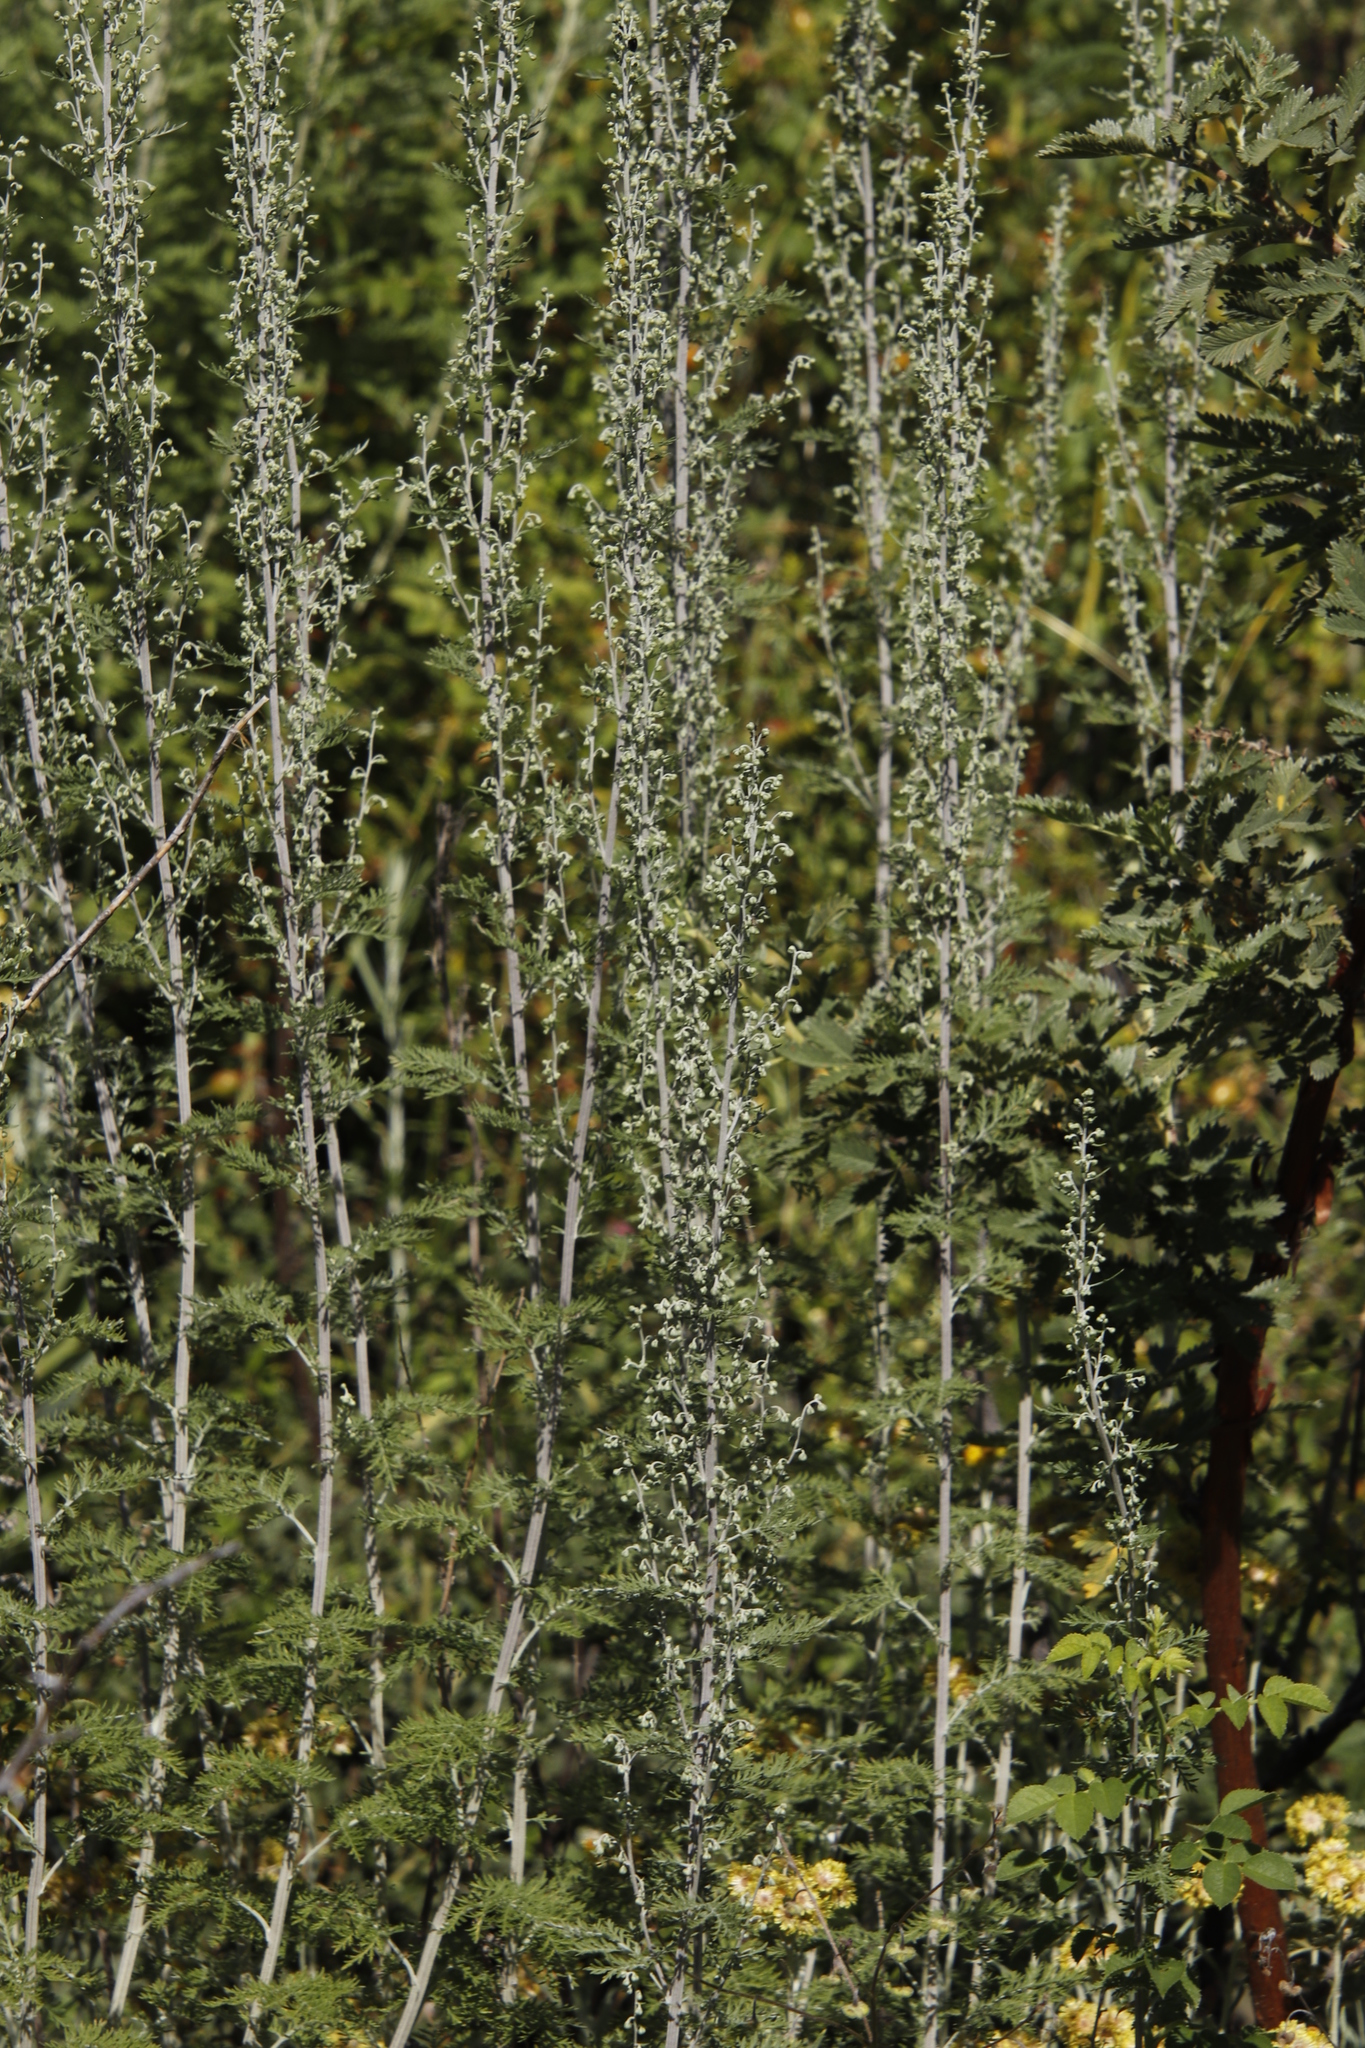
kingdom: Plantae
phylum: Tracheophyta
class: Magnoliopsida
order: Asterales
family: Asteraceae
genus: Artemisia
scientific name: Artemisia afra
